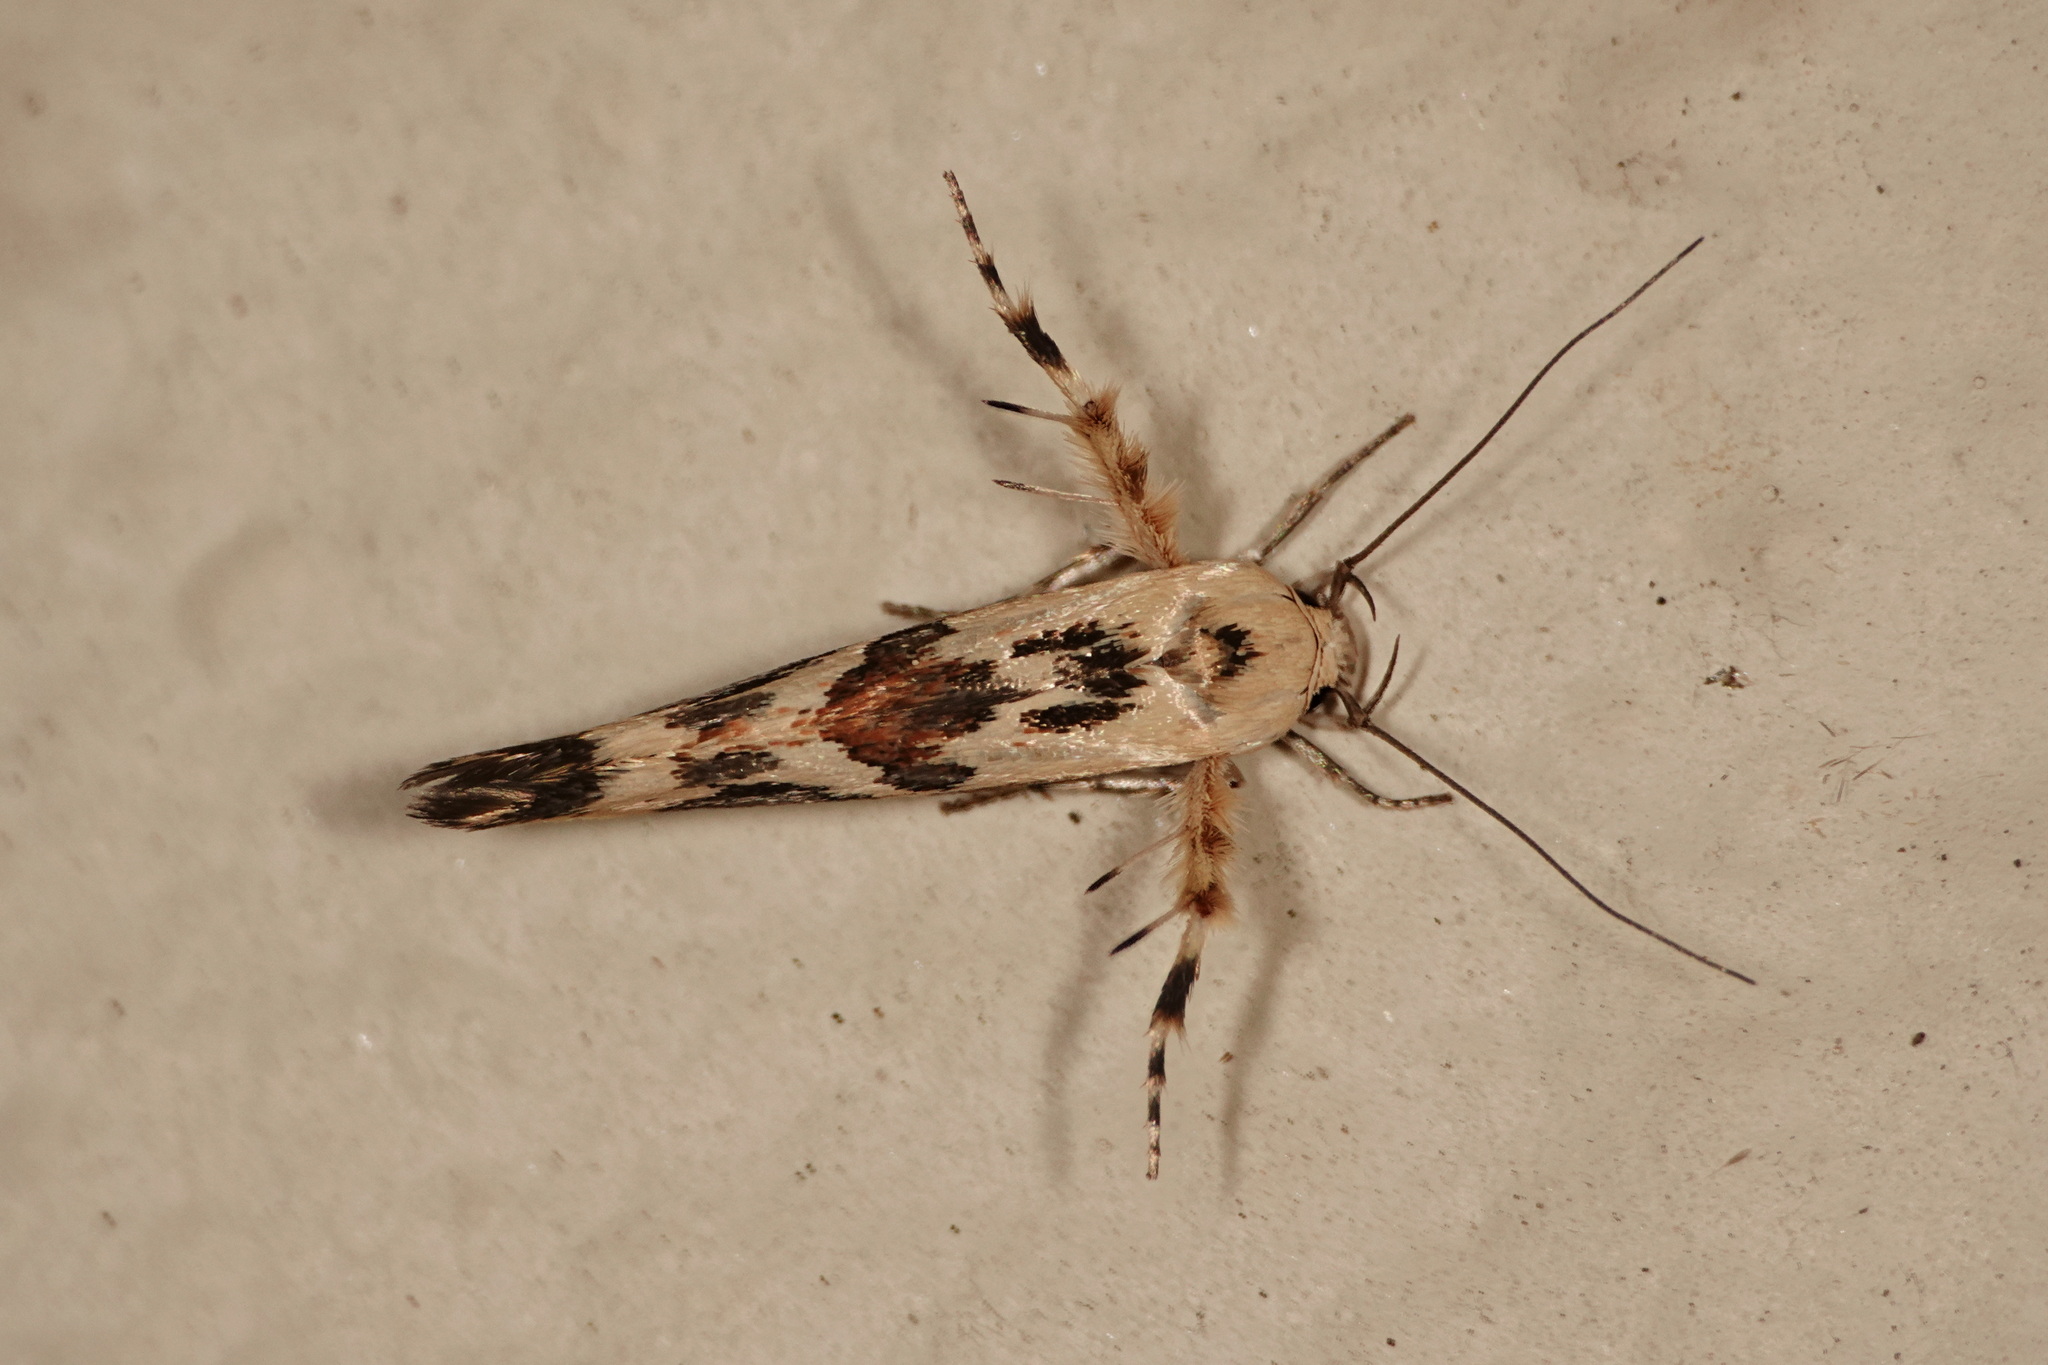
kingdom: Animalia
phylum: Arthropoda
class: Insecta
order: Lepidoptera
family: Stathmopodidae
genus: Stathmopoda
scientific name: Stathmopoda melanochra
